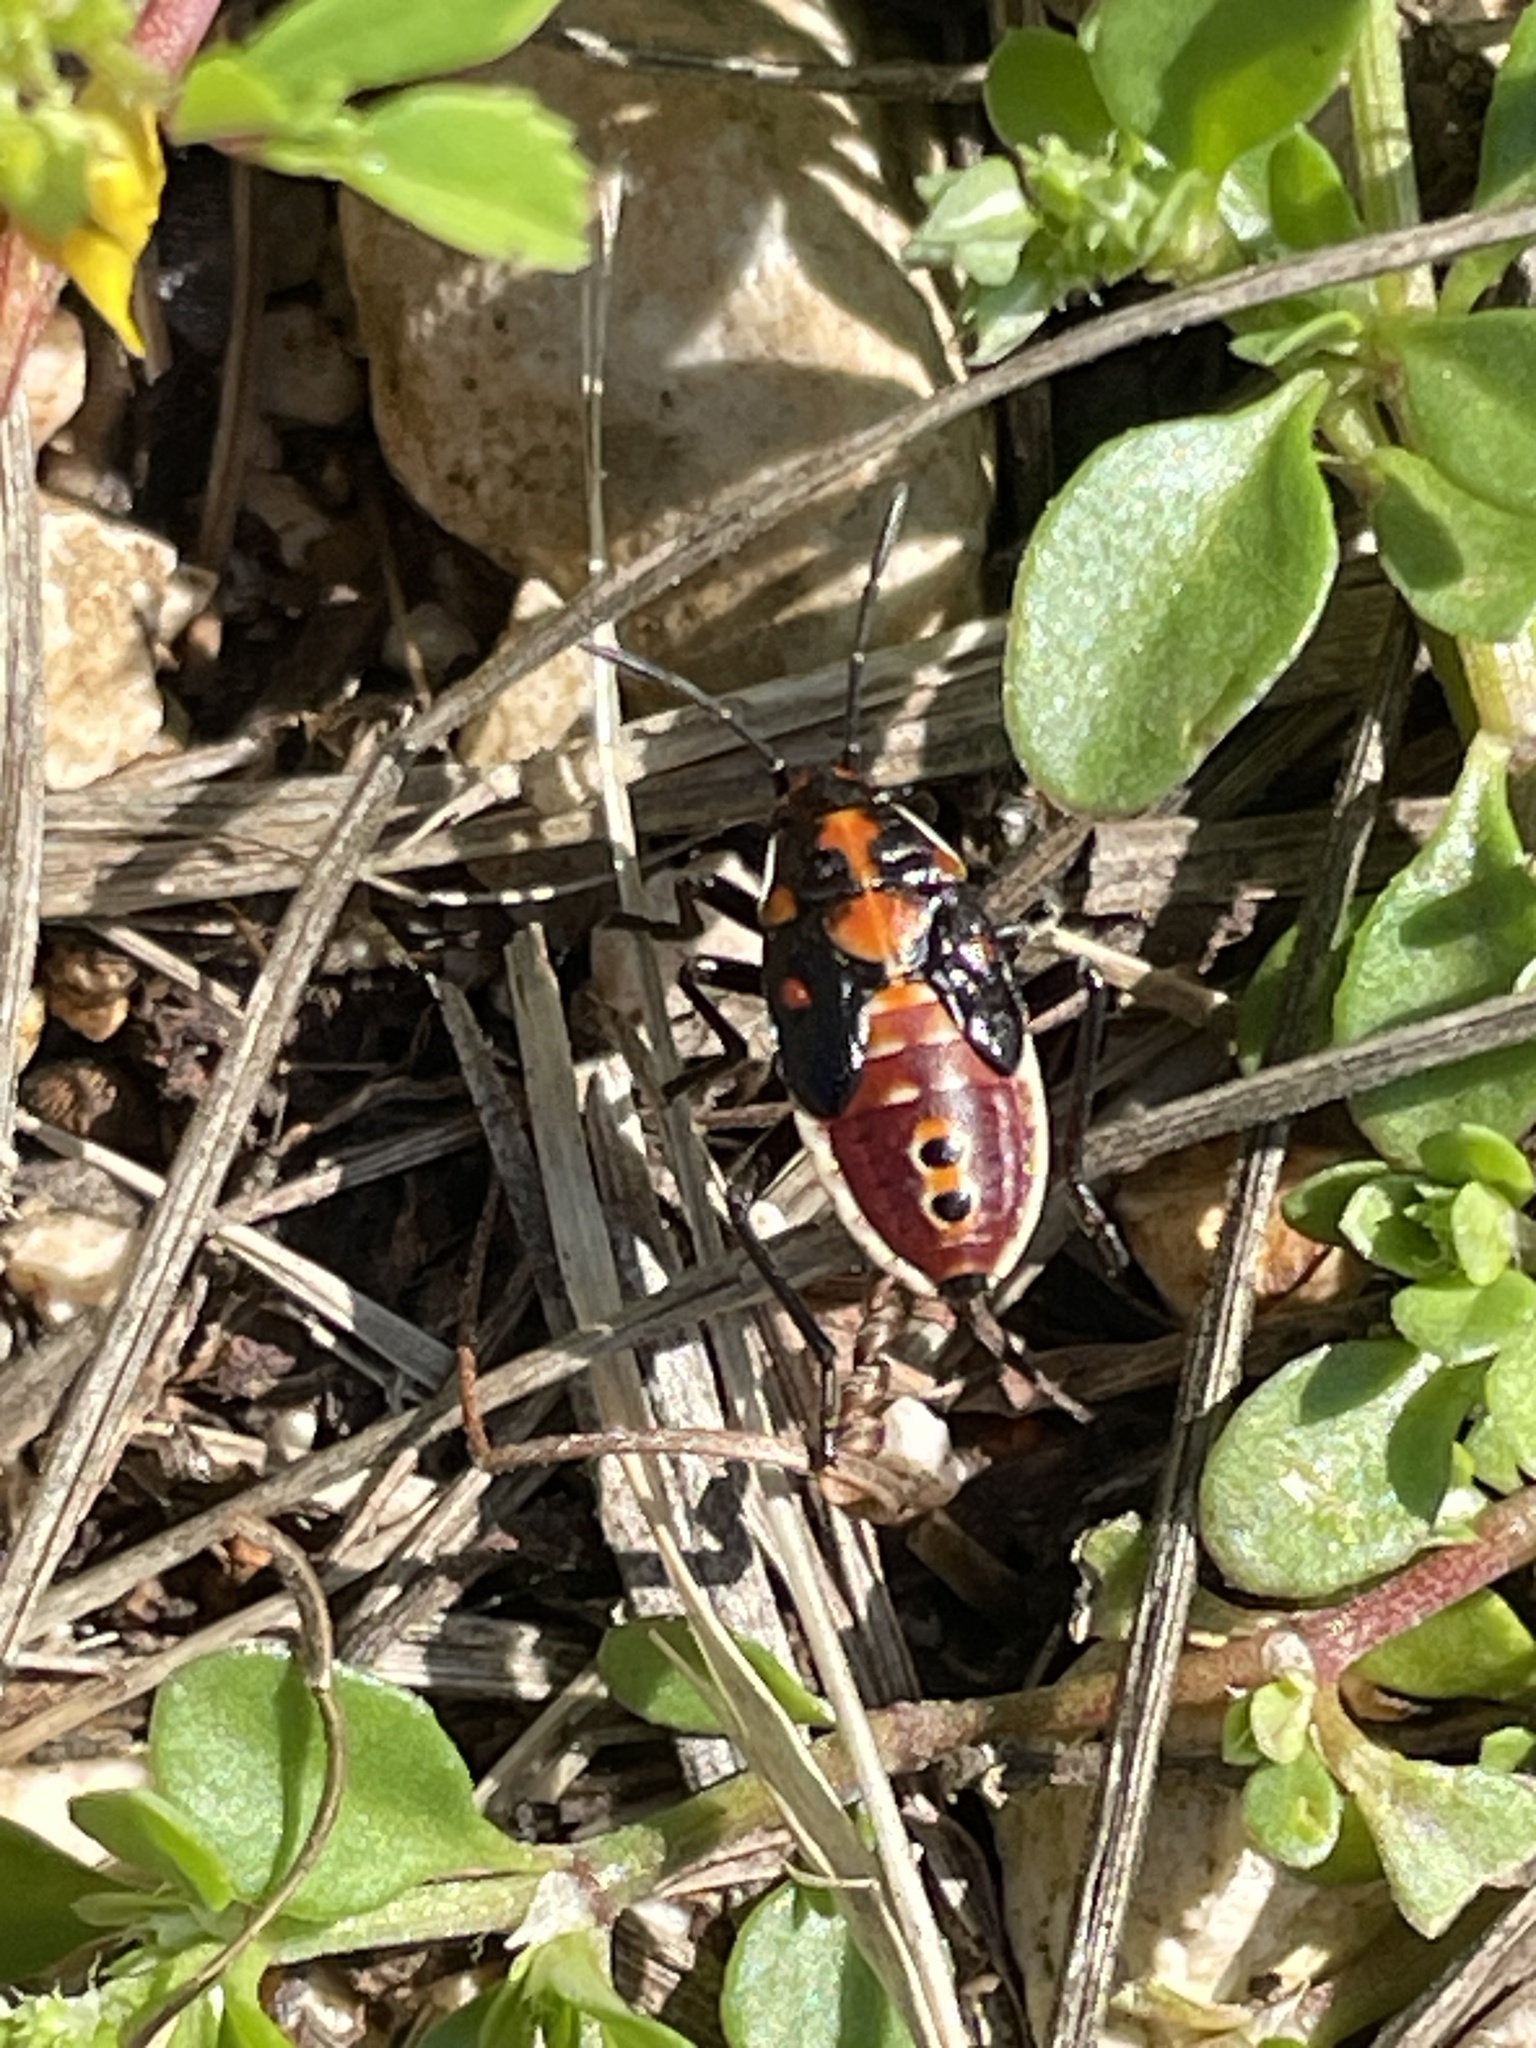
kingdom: Animalia
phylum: Arthropoda
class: Insecta
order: Hemiptera
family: Lygaeidae
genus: Spilostethus
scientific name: Spilostethus pandurus
